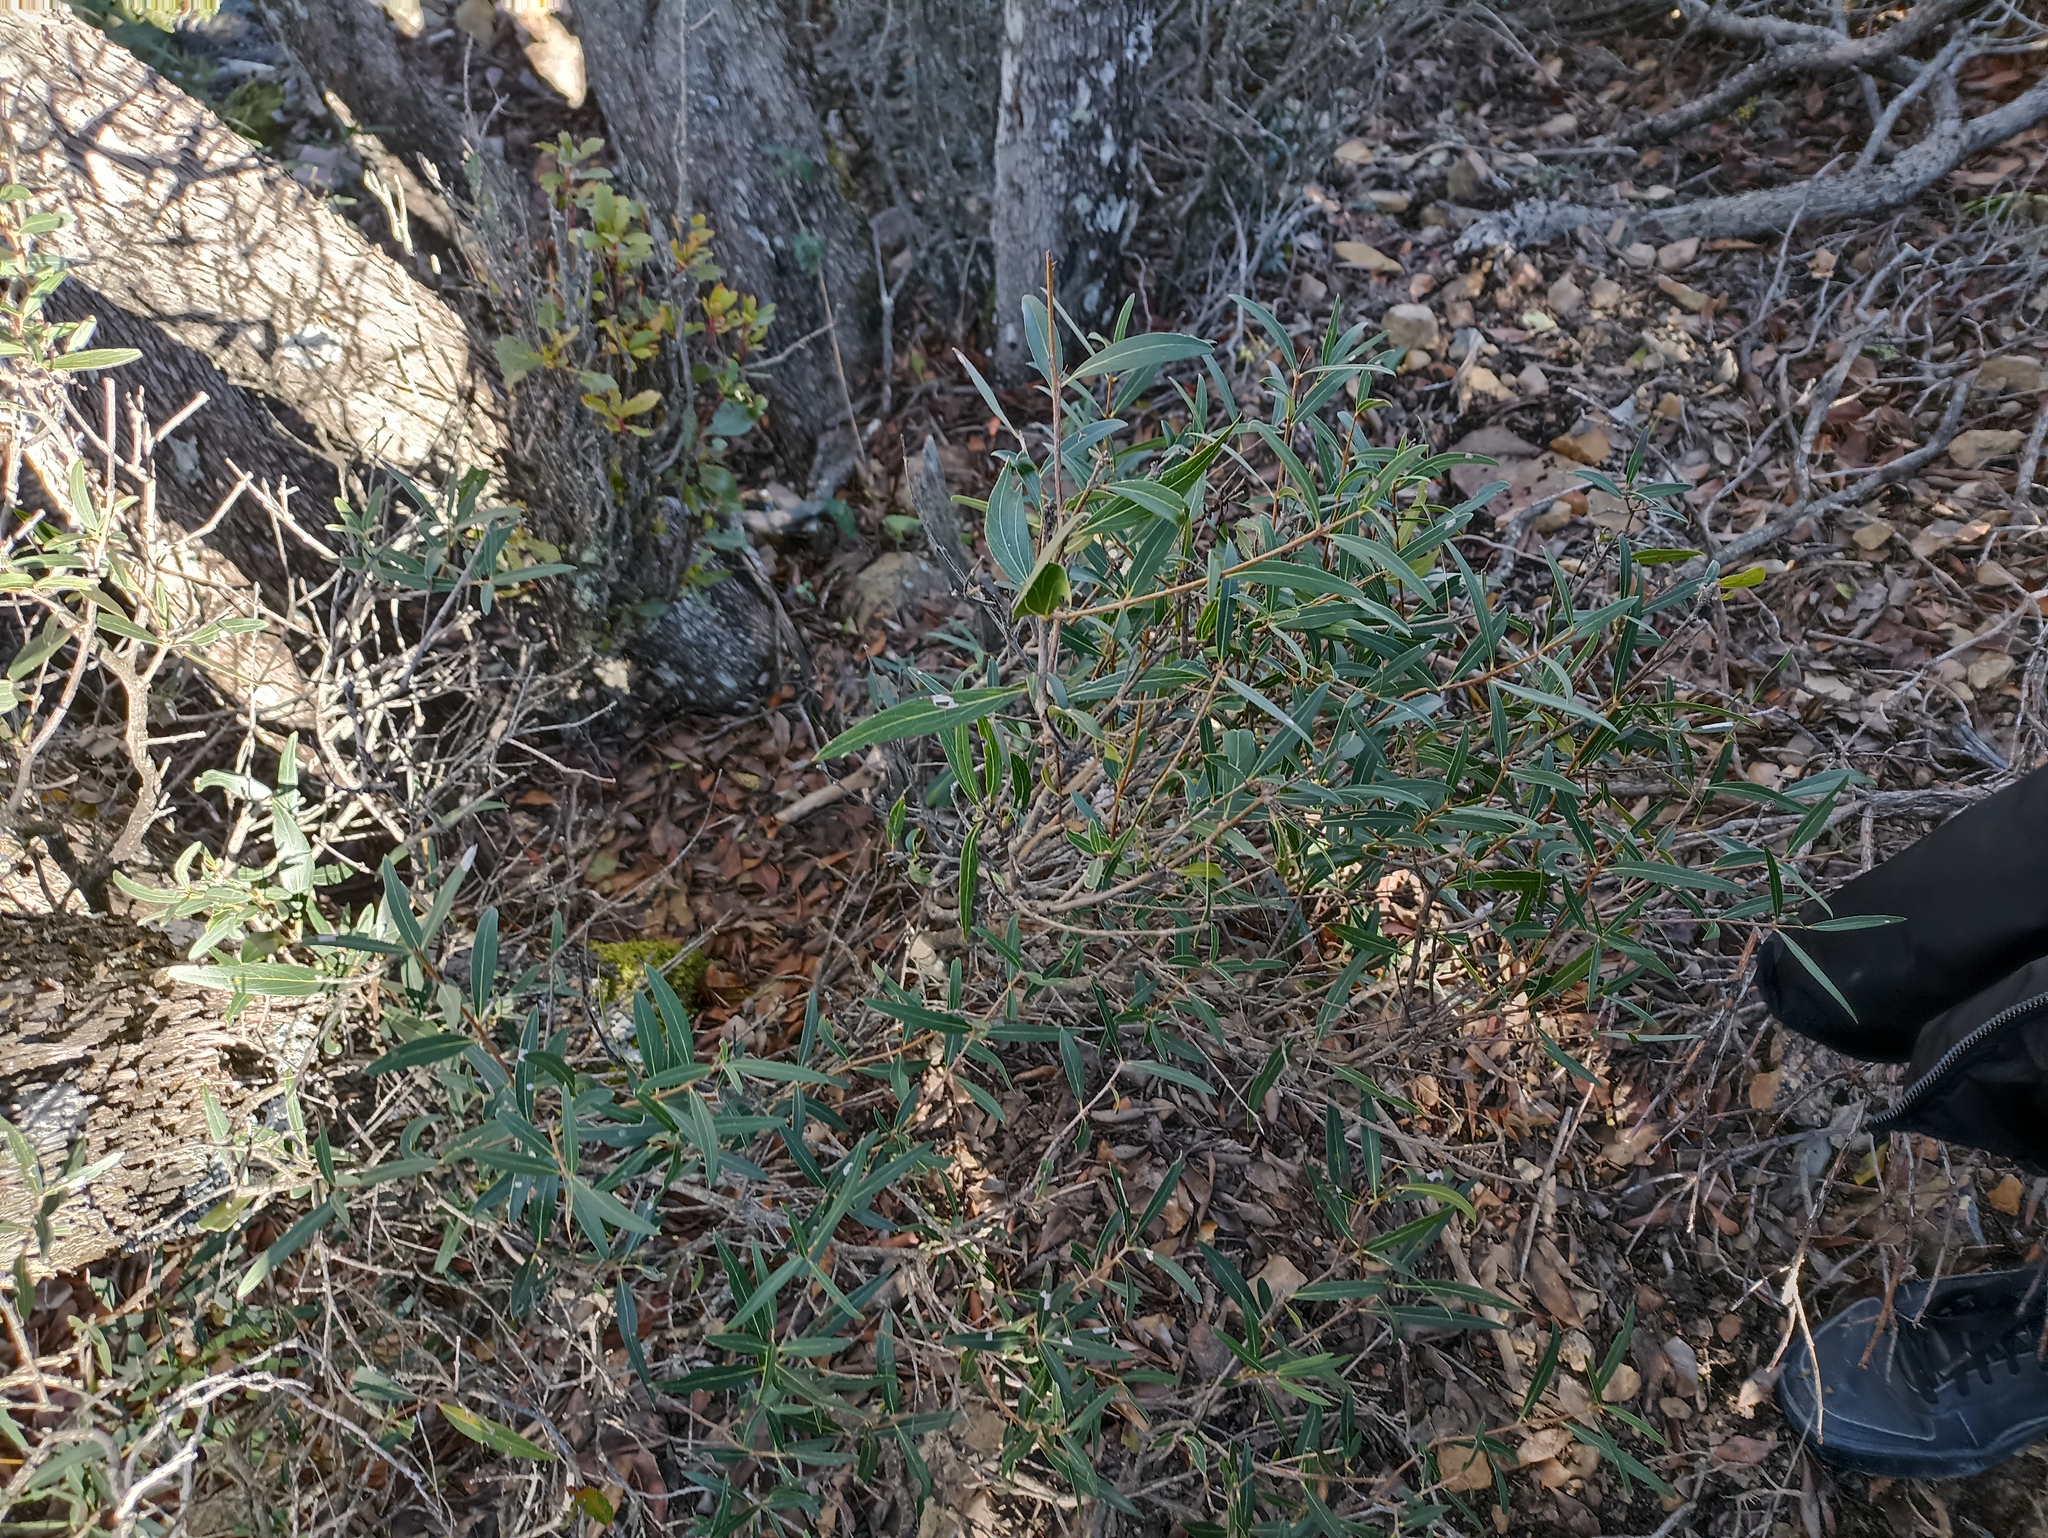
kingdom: Plantae
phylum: Tracheophyta
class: Magnoliopsida
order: Lamiales
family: Oleaceae
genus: Phillyrea
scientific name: Phillyrea angustifolia
